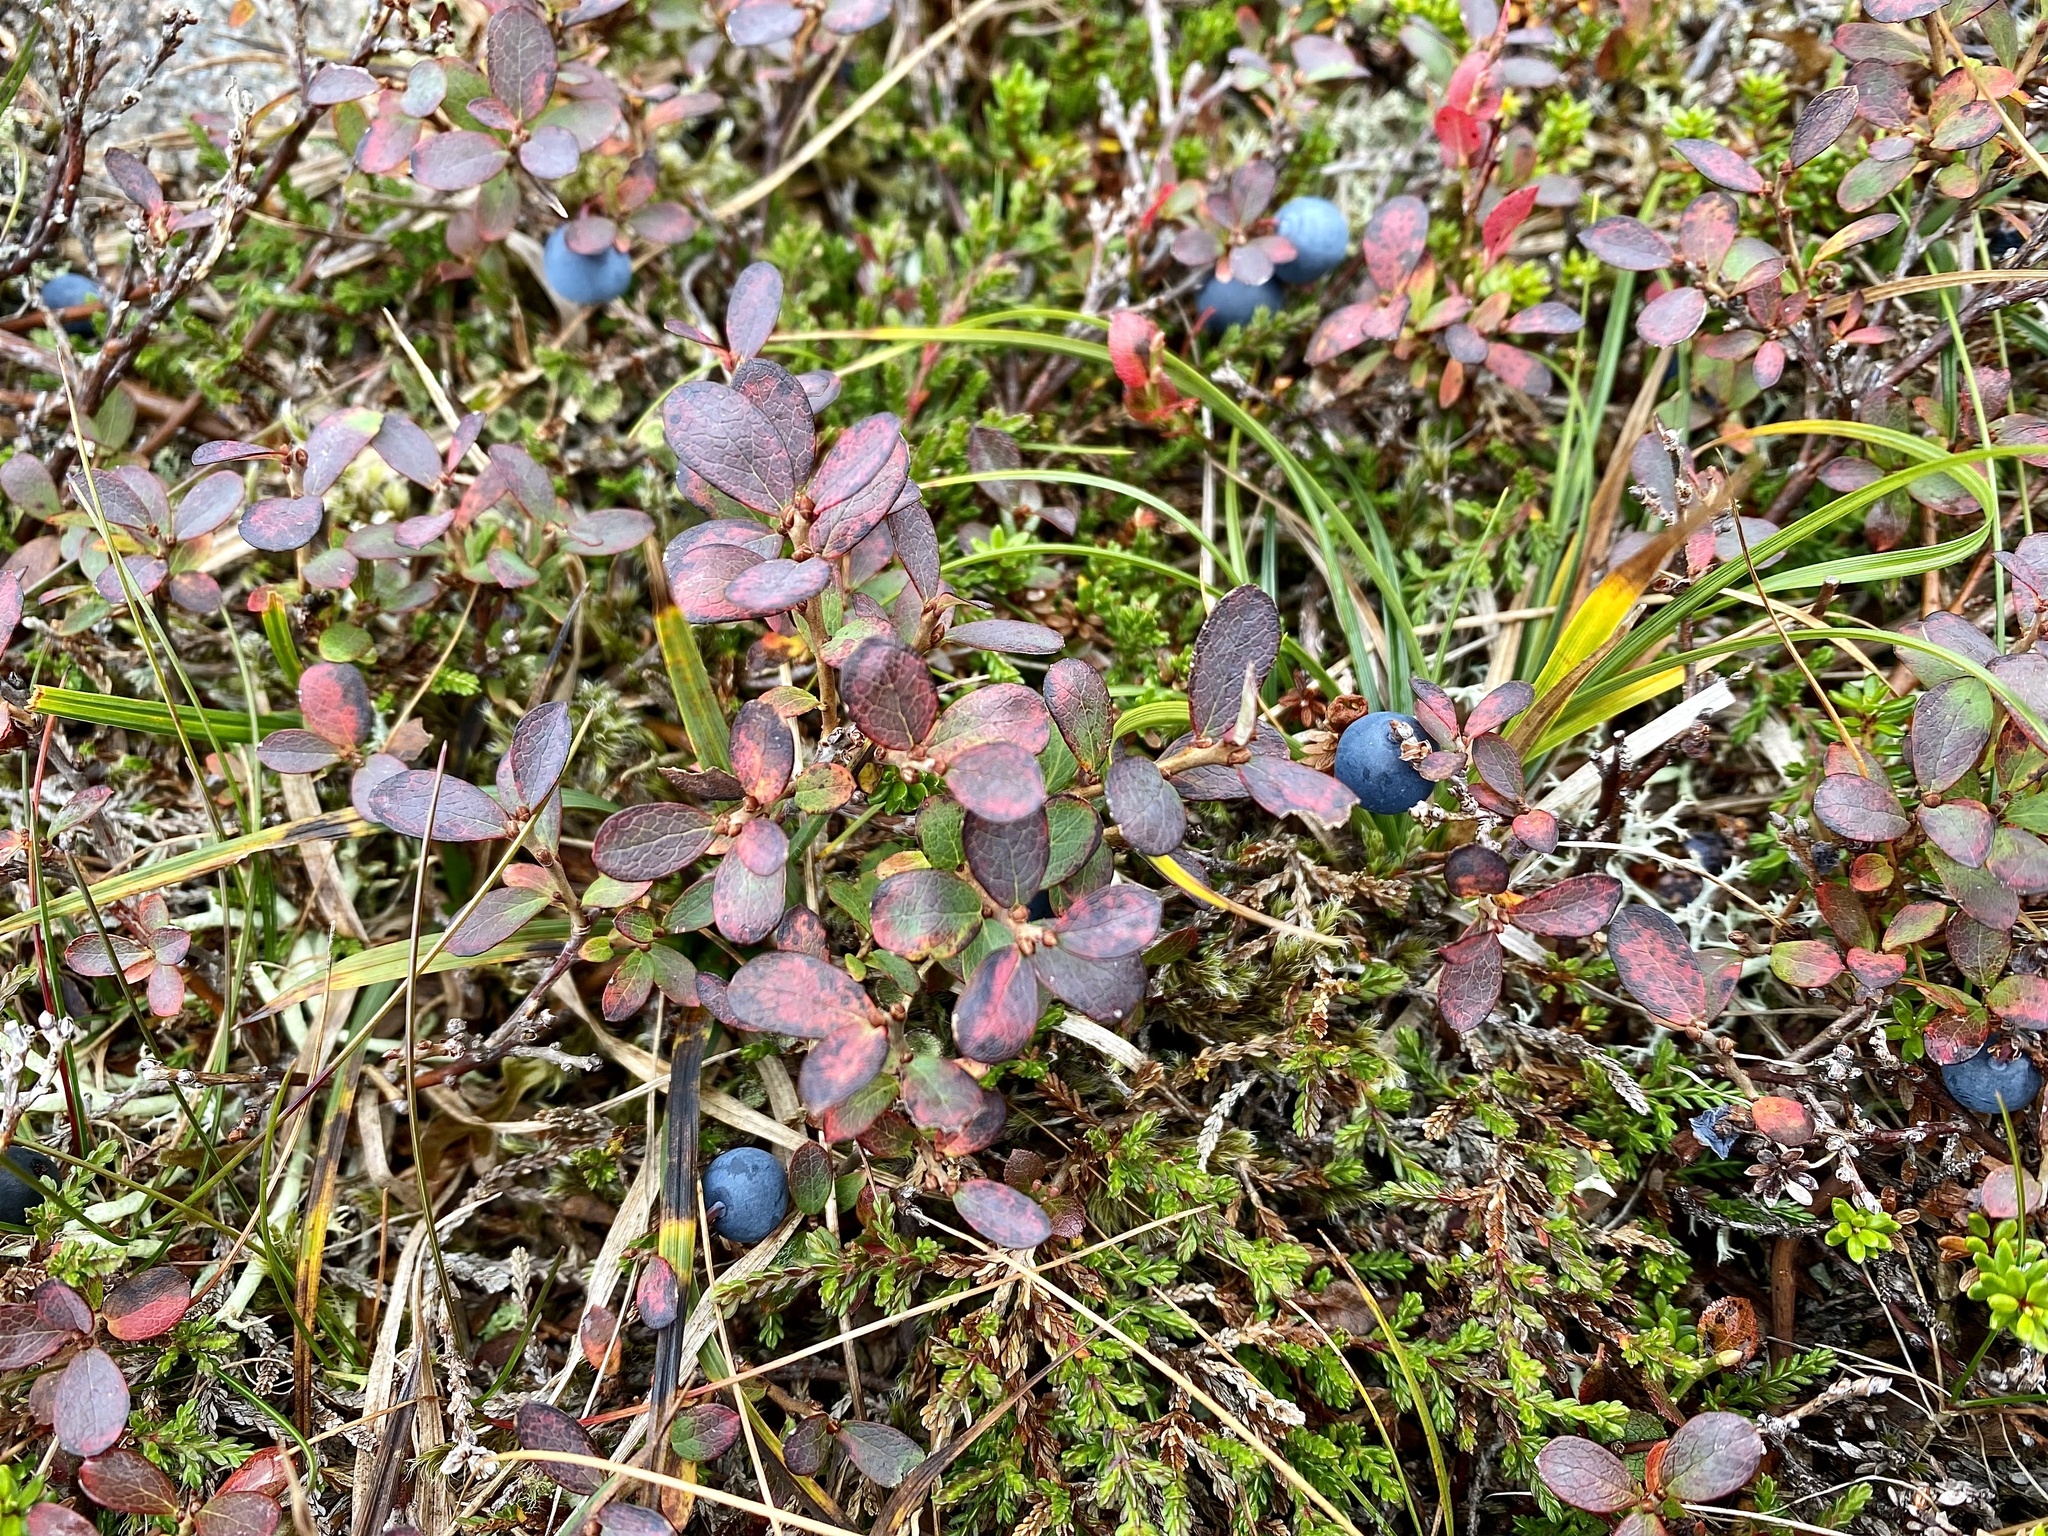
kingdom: Plantae
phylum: Tracheophyta
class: Magnoliopsida
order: Ericales
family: Ericaceae
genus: Vaccinium
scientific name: Vaccinium uliginosum
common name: Bog bilberry
